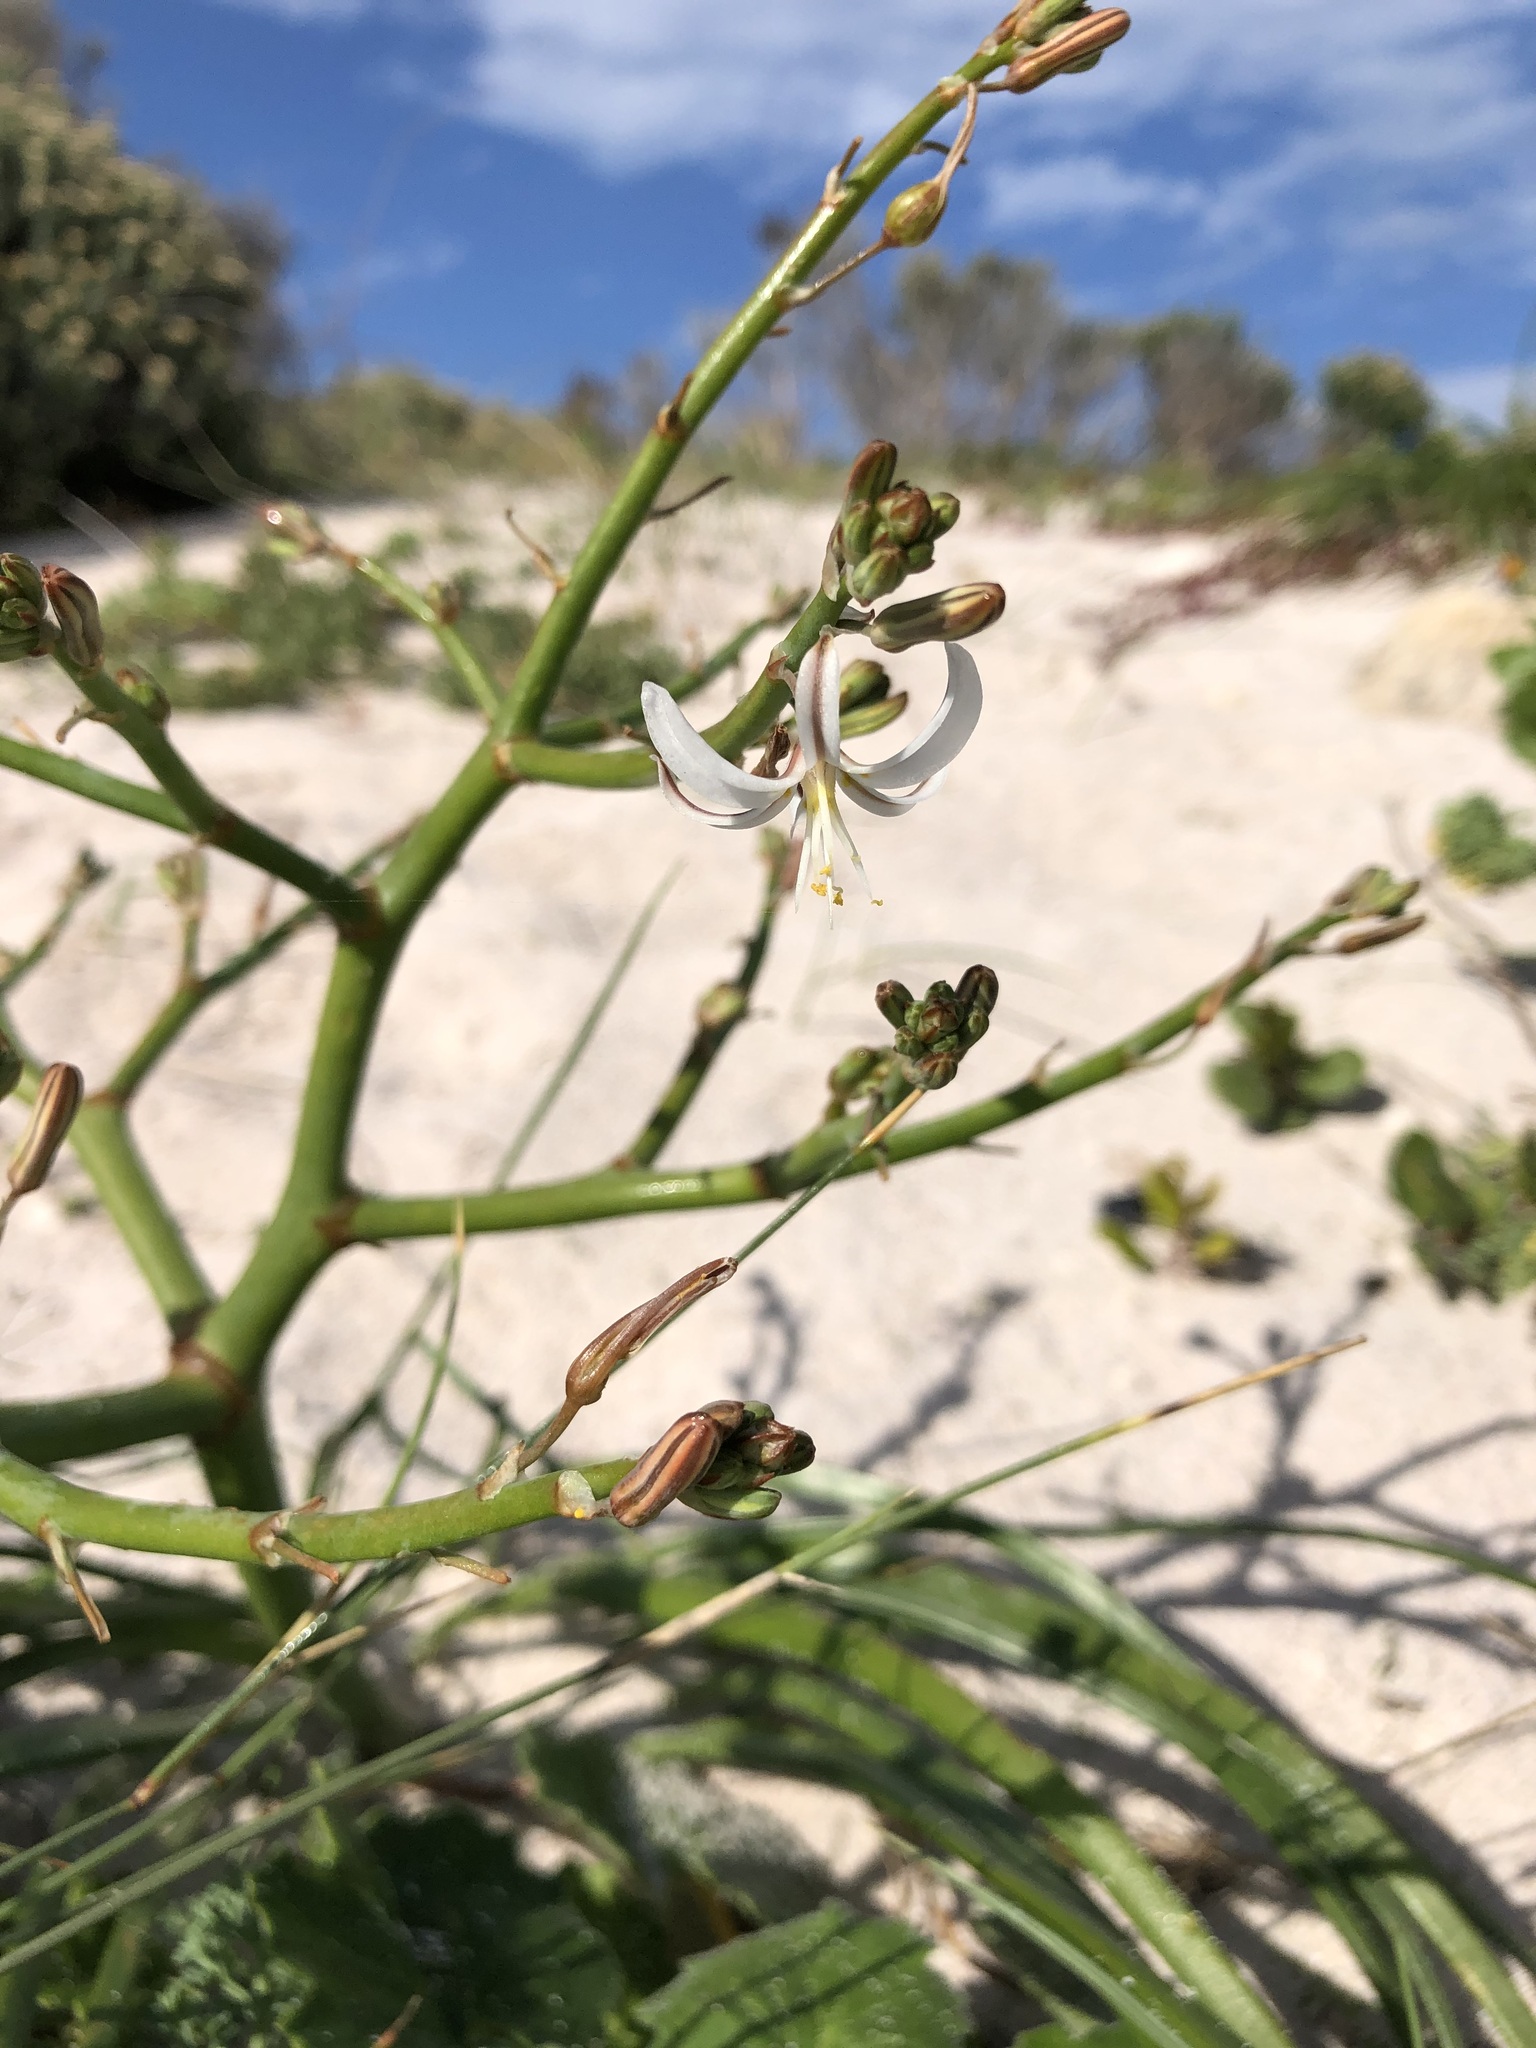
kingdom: Plantae
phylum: Tracheophyta
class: Liliopsida
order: Asparagales
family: Asphodelaceae
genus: Trachyandra
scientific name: Trachyandra divaricata
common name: Dune onionweed
